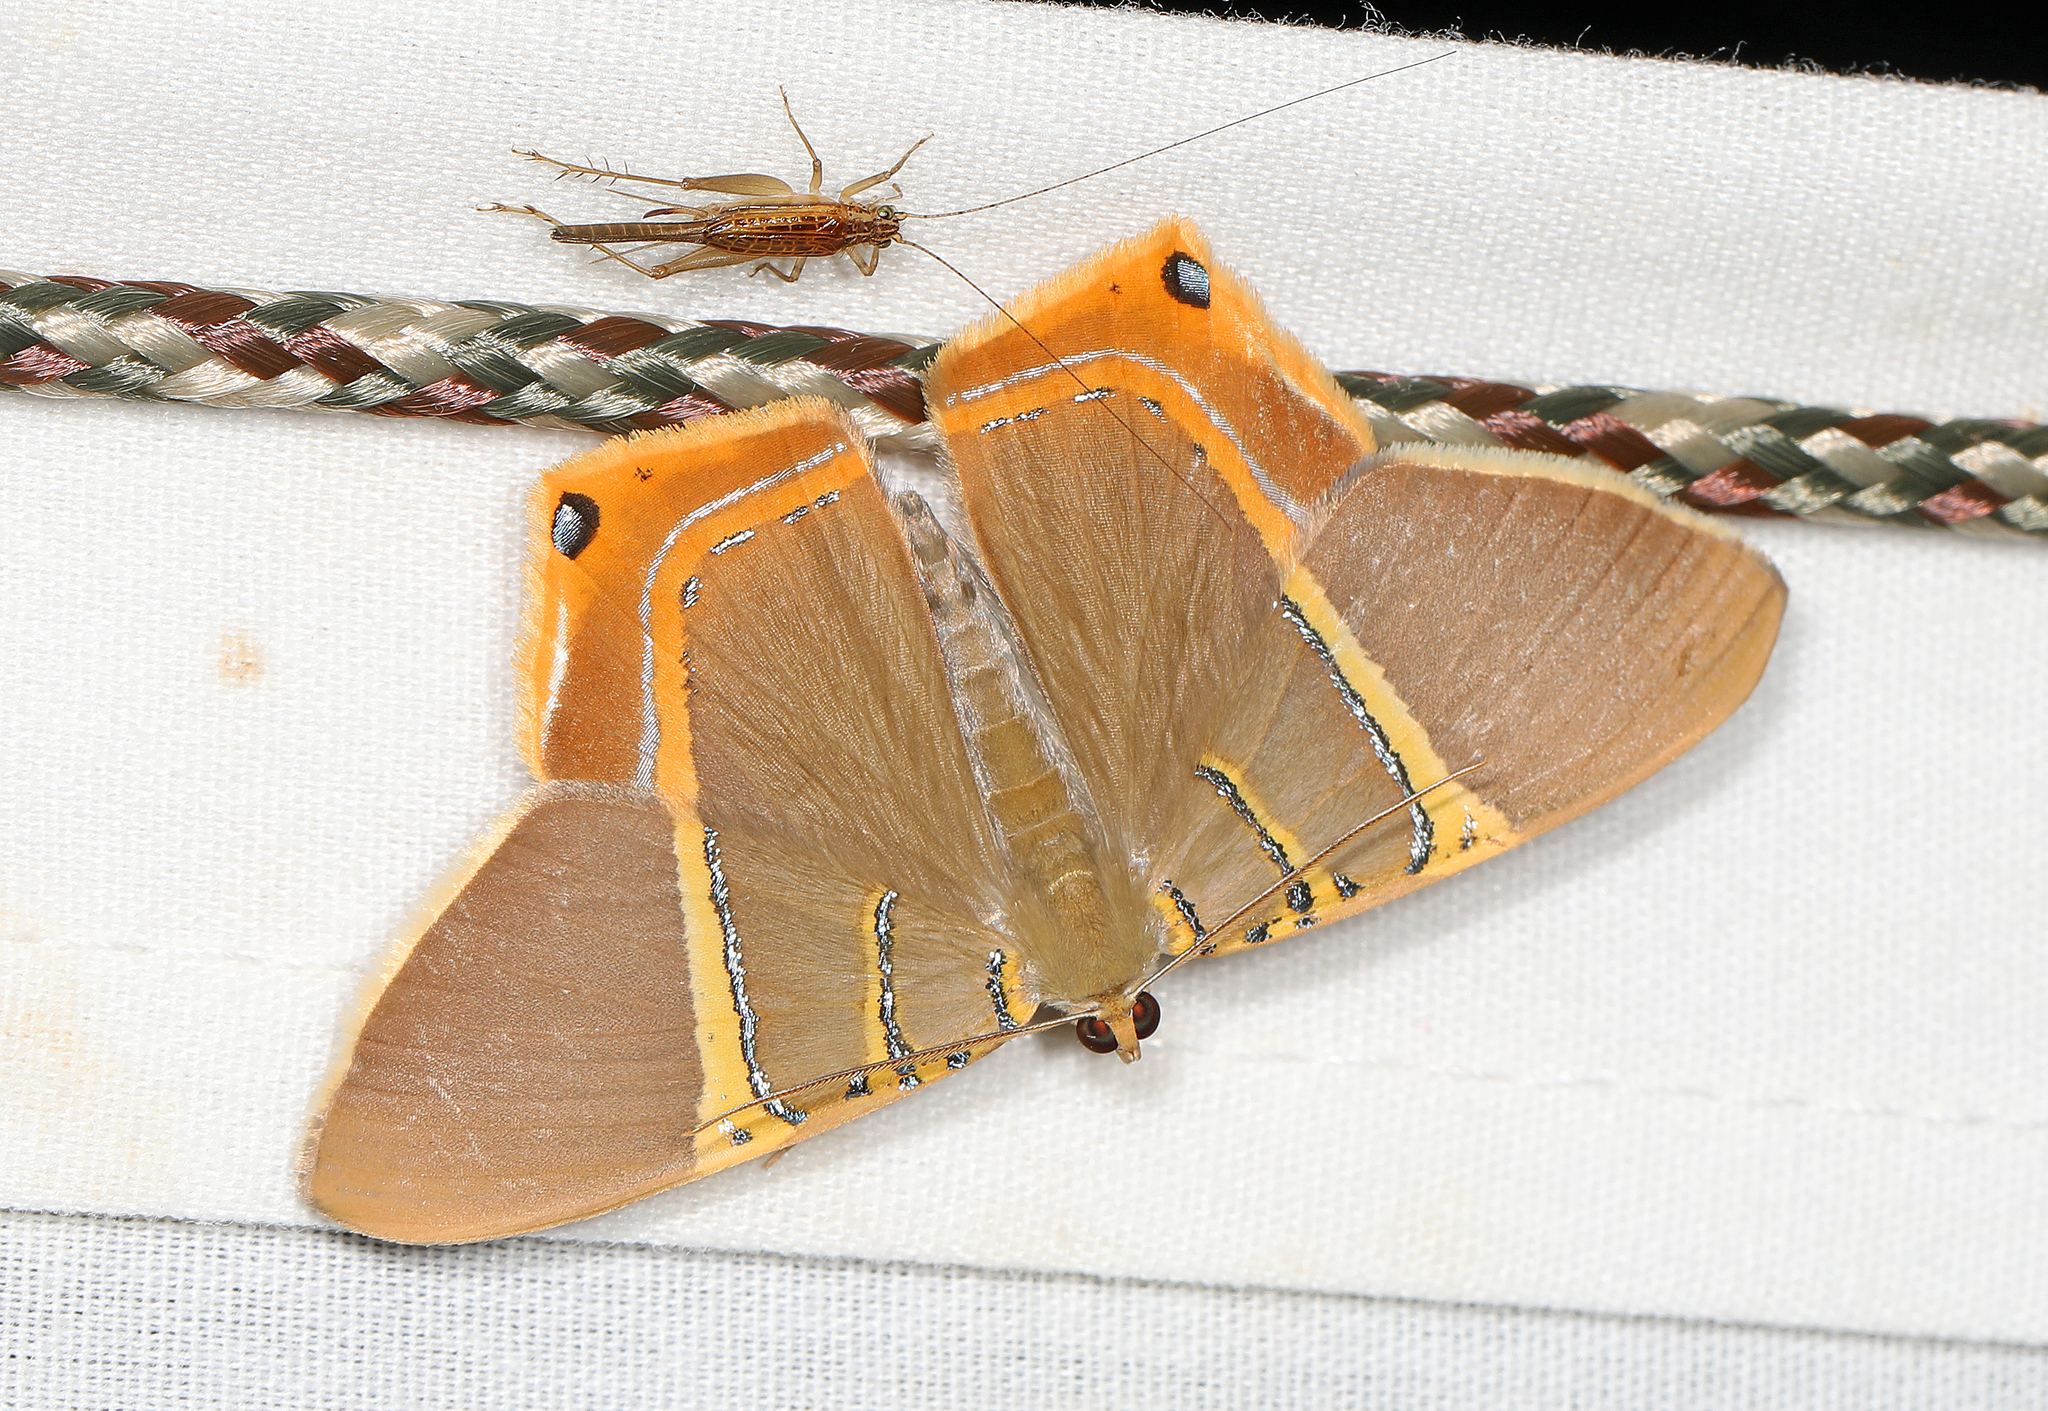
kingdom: Animalia
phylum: Arthropoda
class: Insecta
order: Lepidoptera
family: Geometridae
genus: Phrygionis
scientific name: Phrygionis polita
